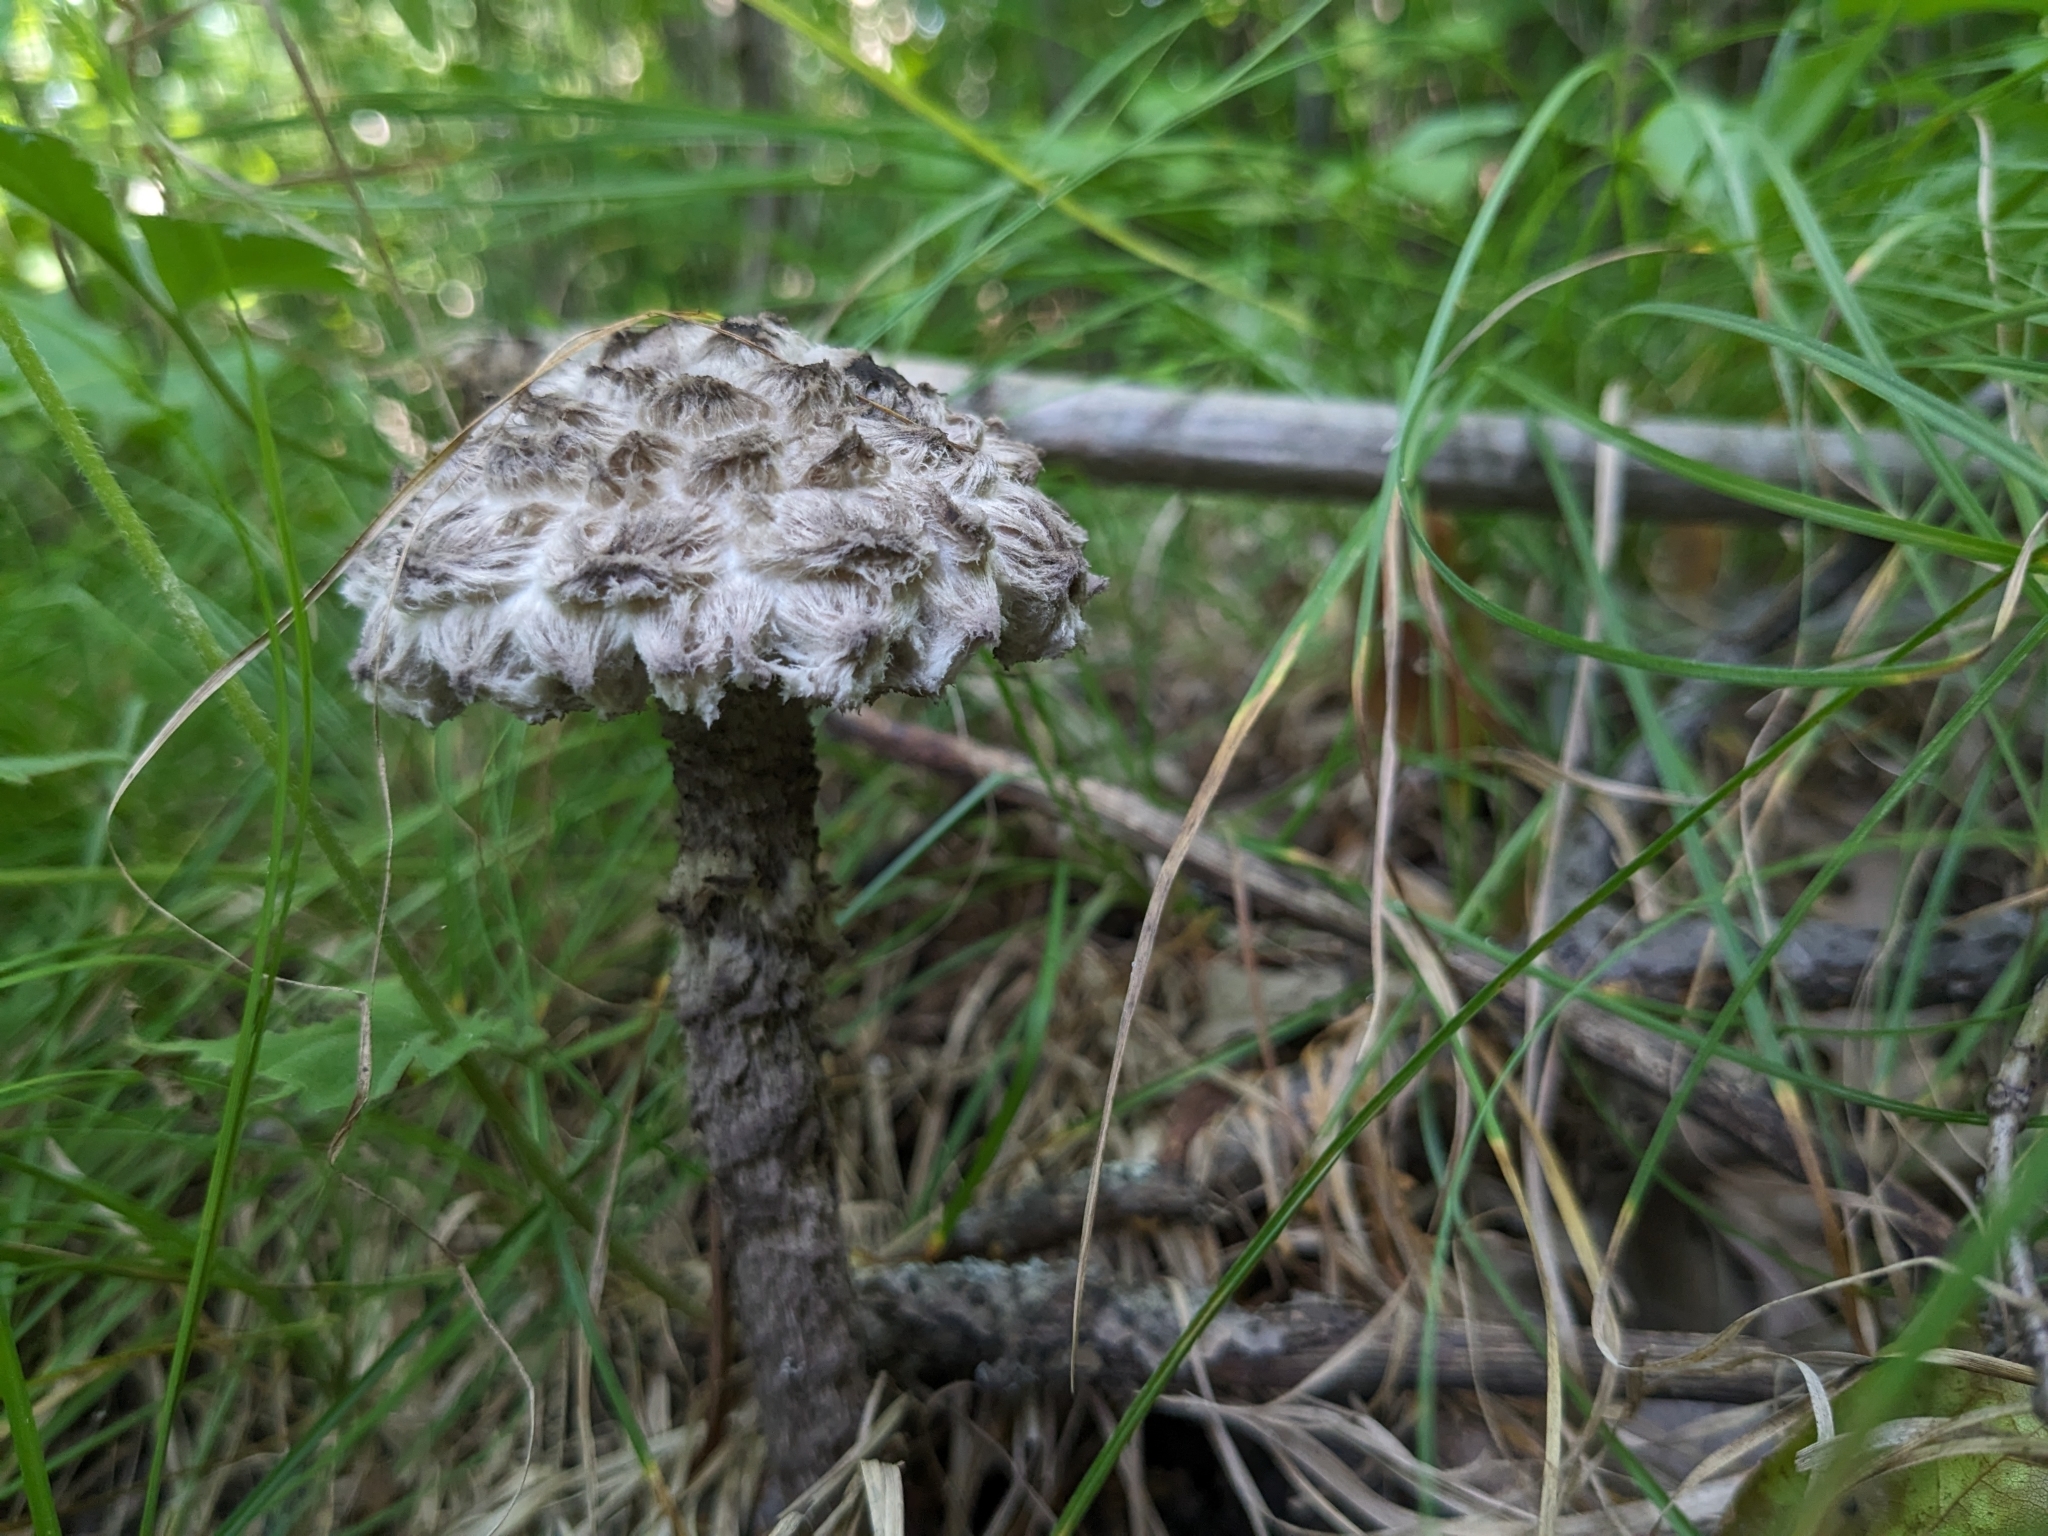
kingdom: Fungi
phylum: Basidiomycota
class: Agaricomycetes
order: Boletales
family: Boletaceae
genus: Strobilomyces
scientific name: Strobilomyces strobilaceus
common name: Old man of the woods
